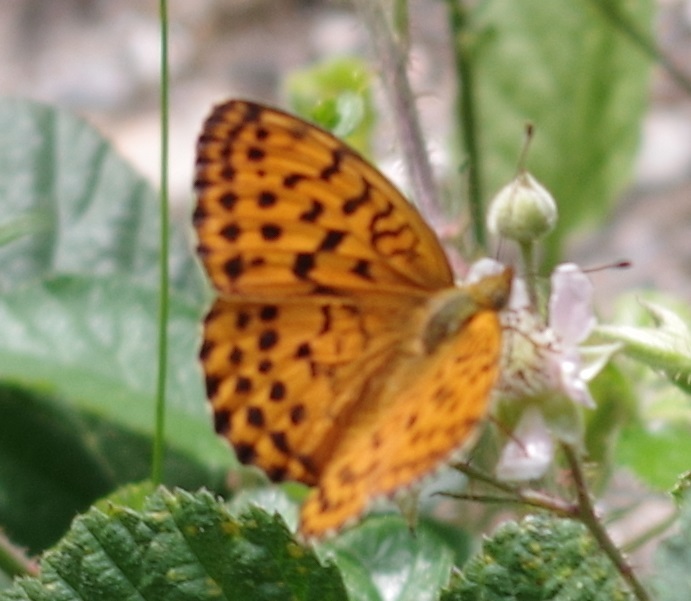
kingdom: Animalia
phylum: Arthropoda
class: Insecta
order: Lepidoptera
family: Nymphalidae
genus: Brenthis
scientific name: Brenthis daphne
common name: Marbled fritillary
